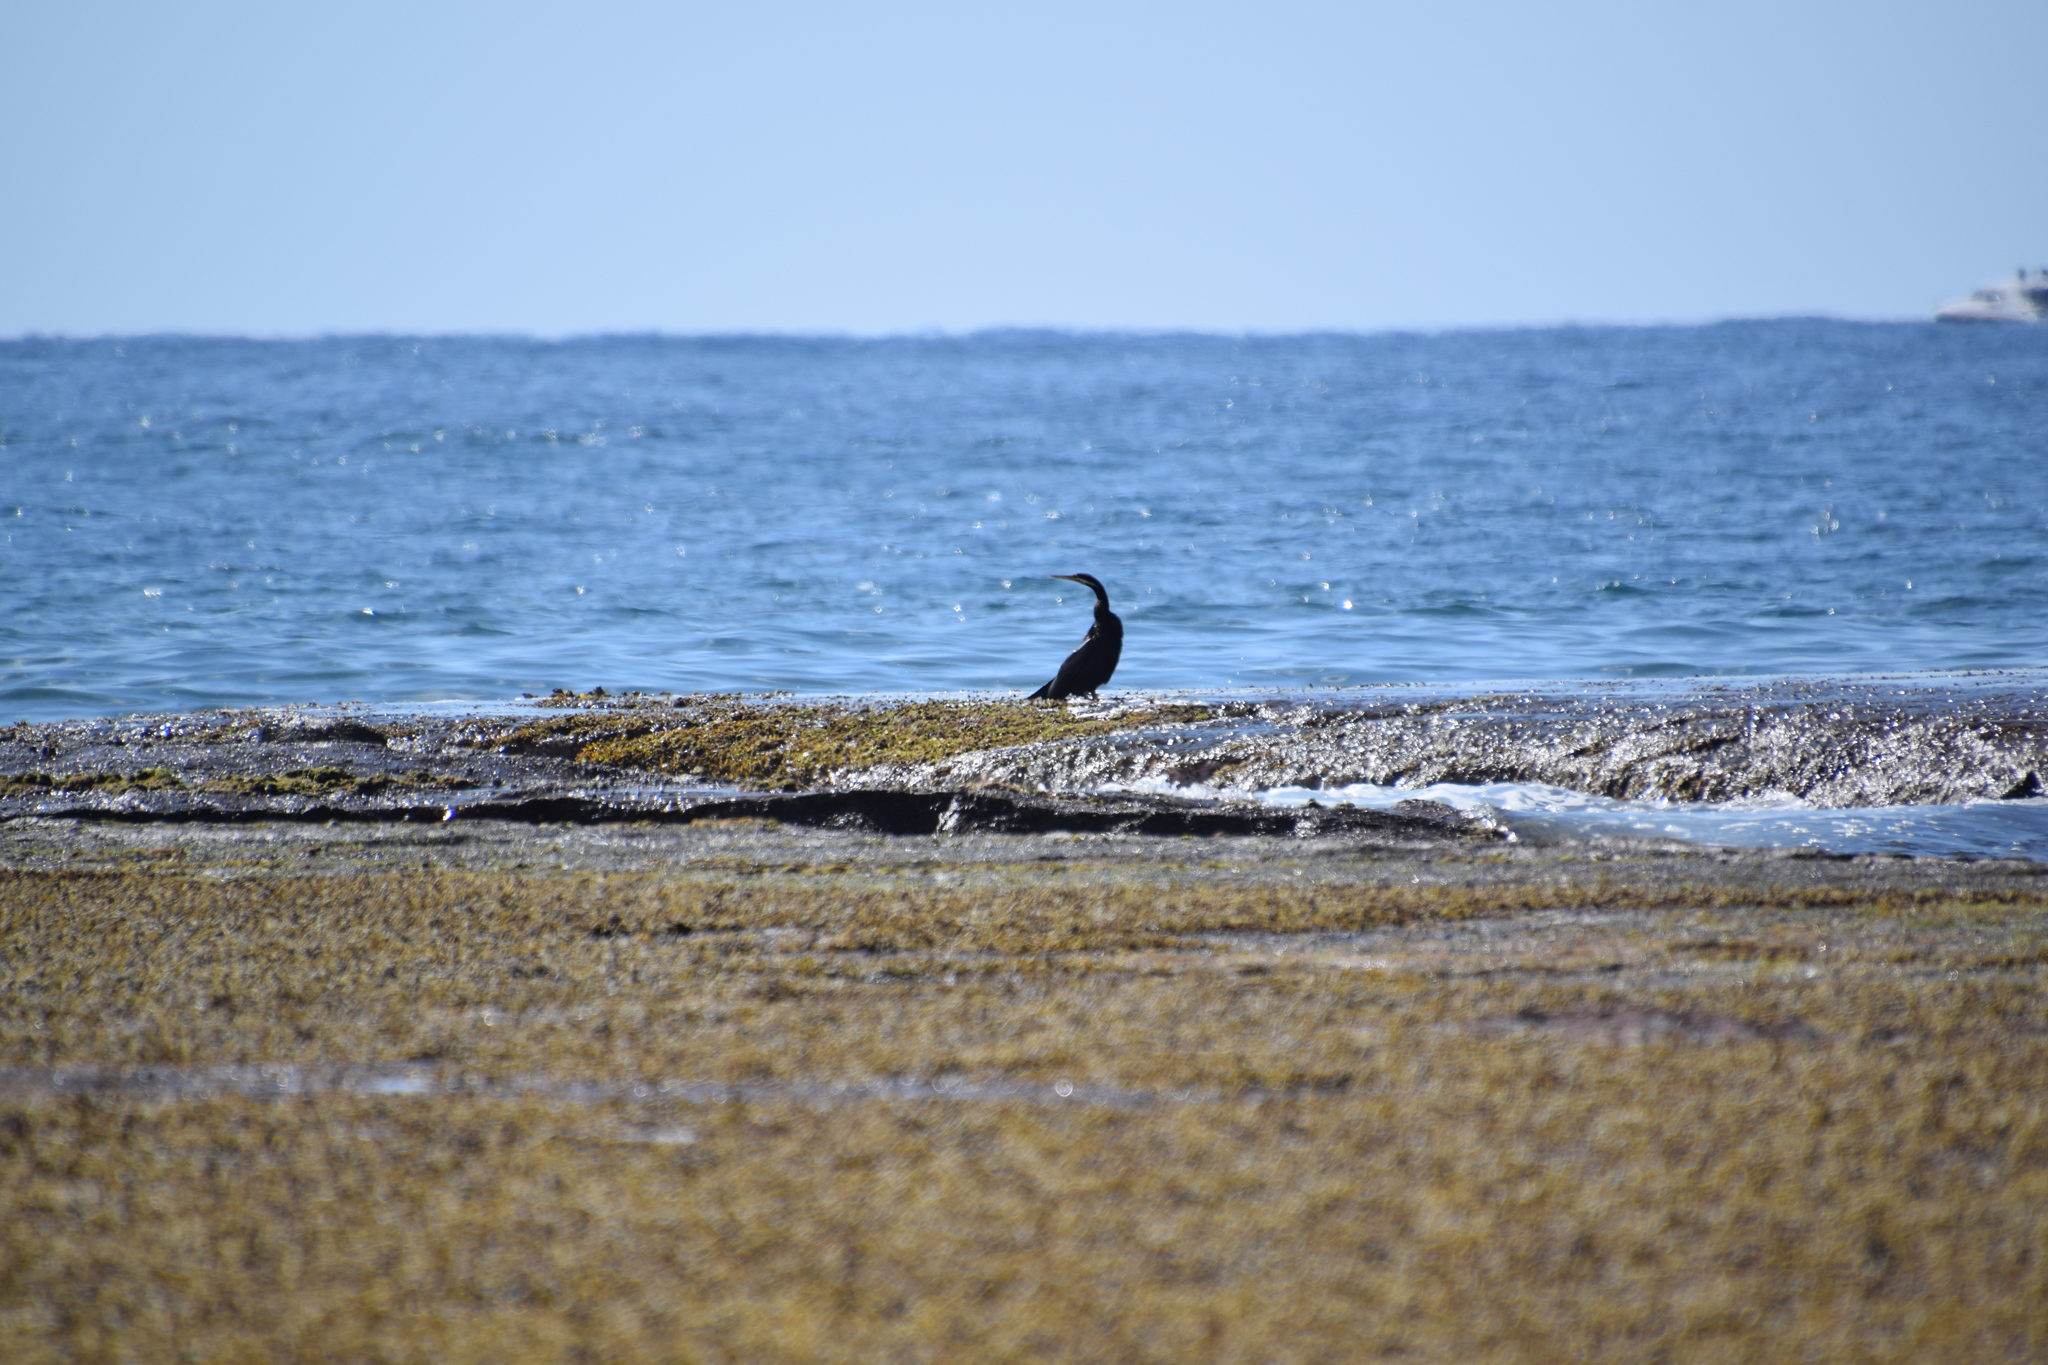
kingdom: Animalia
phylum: Chordata
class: Aves
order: Suliformes
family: Anhingidae
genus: Anhinga
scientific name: Anhinga novaehollandiae
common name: Australasian darter
